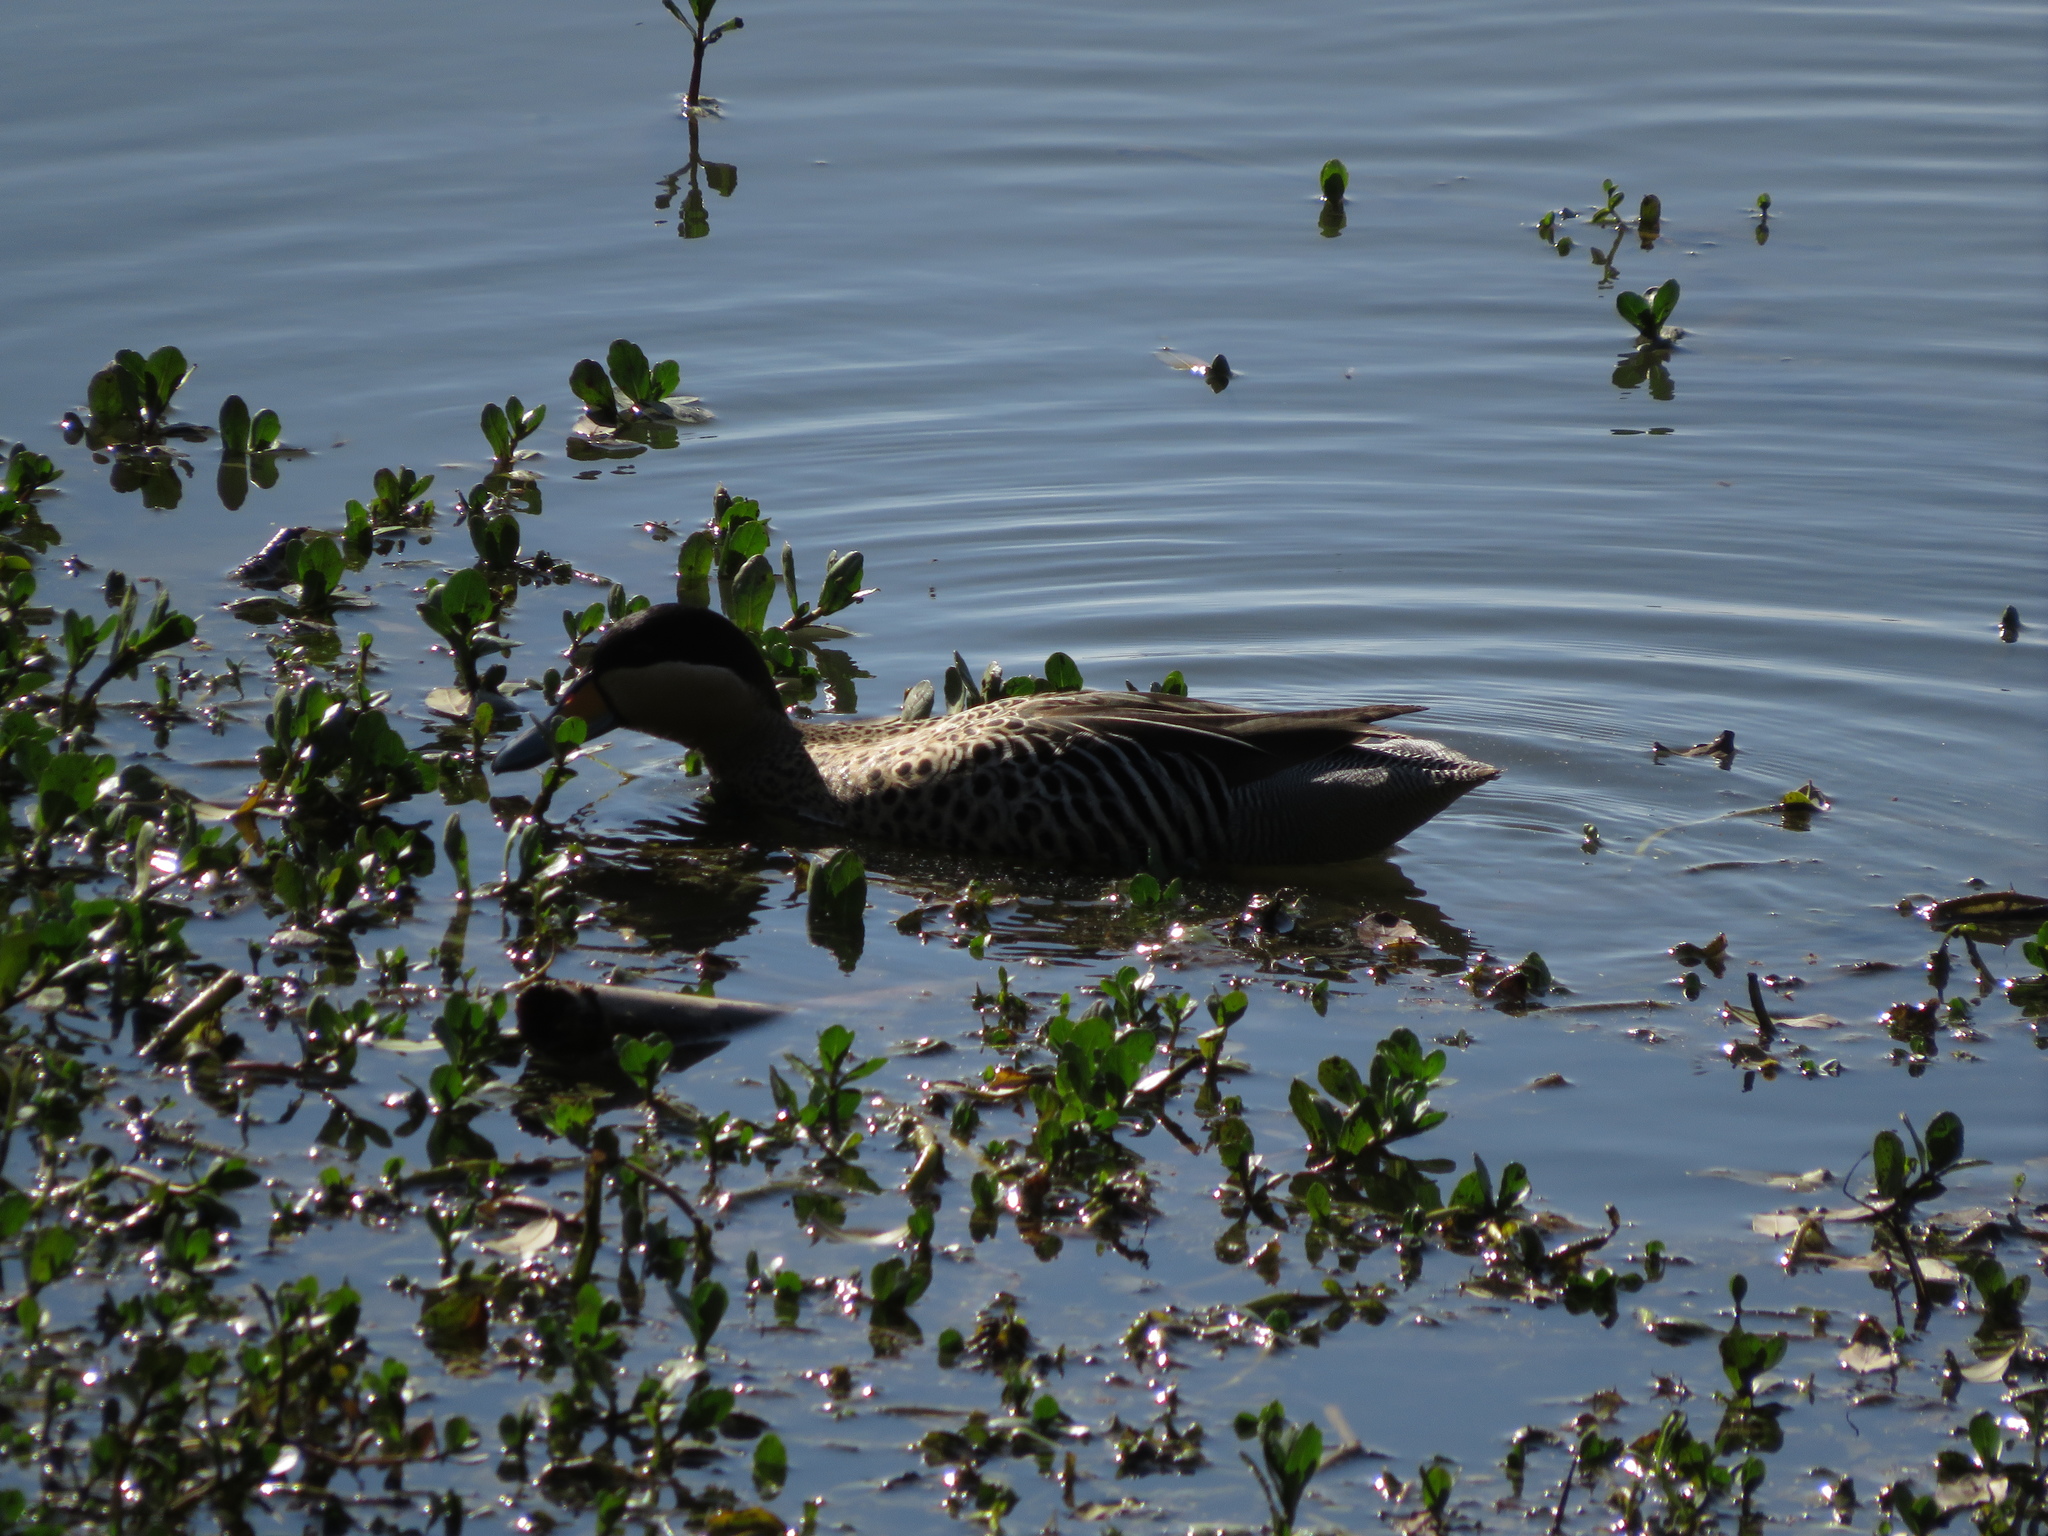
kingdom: Animalia
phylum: Chordata
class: Aves
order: Anseriformes
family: Anatidae
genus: Spatula
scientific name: Spatula versicolor
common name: Silver teal
